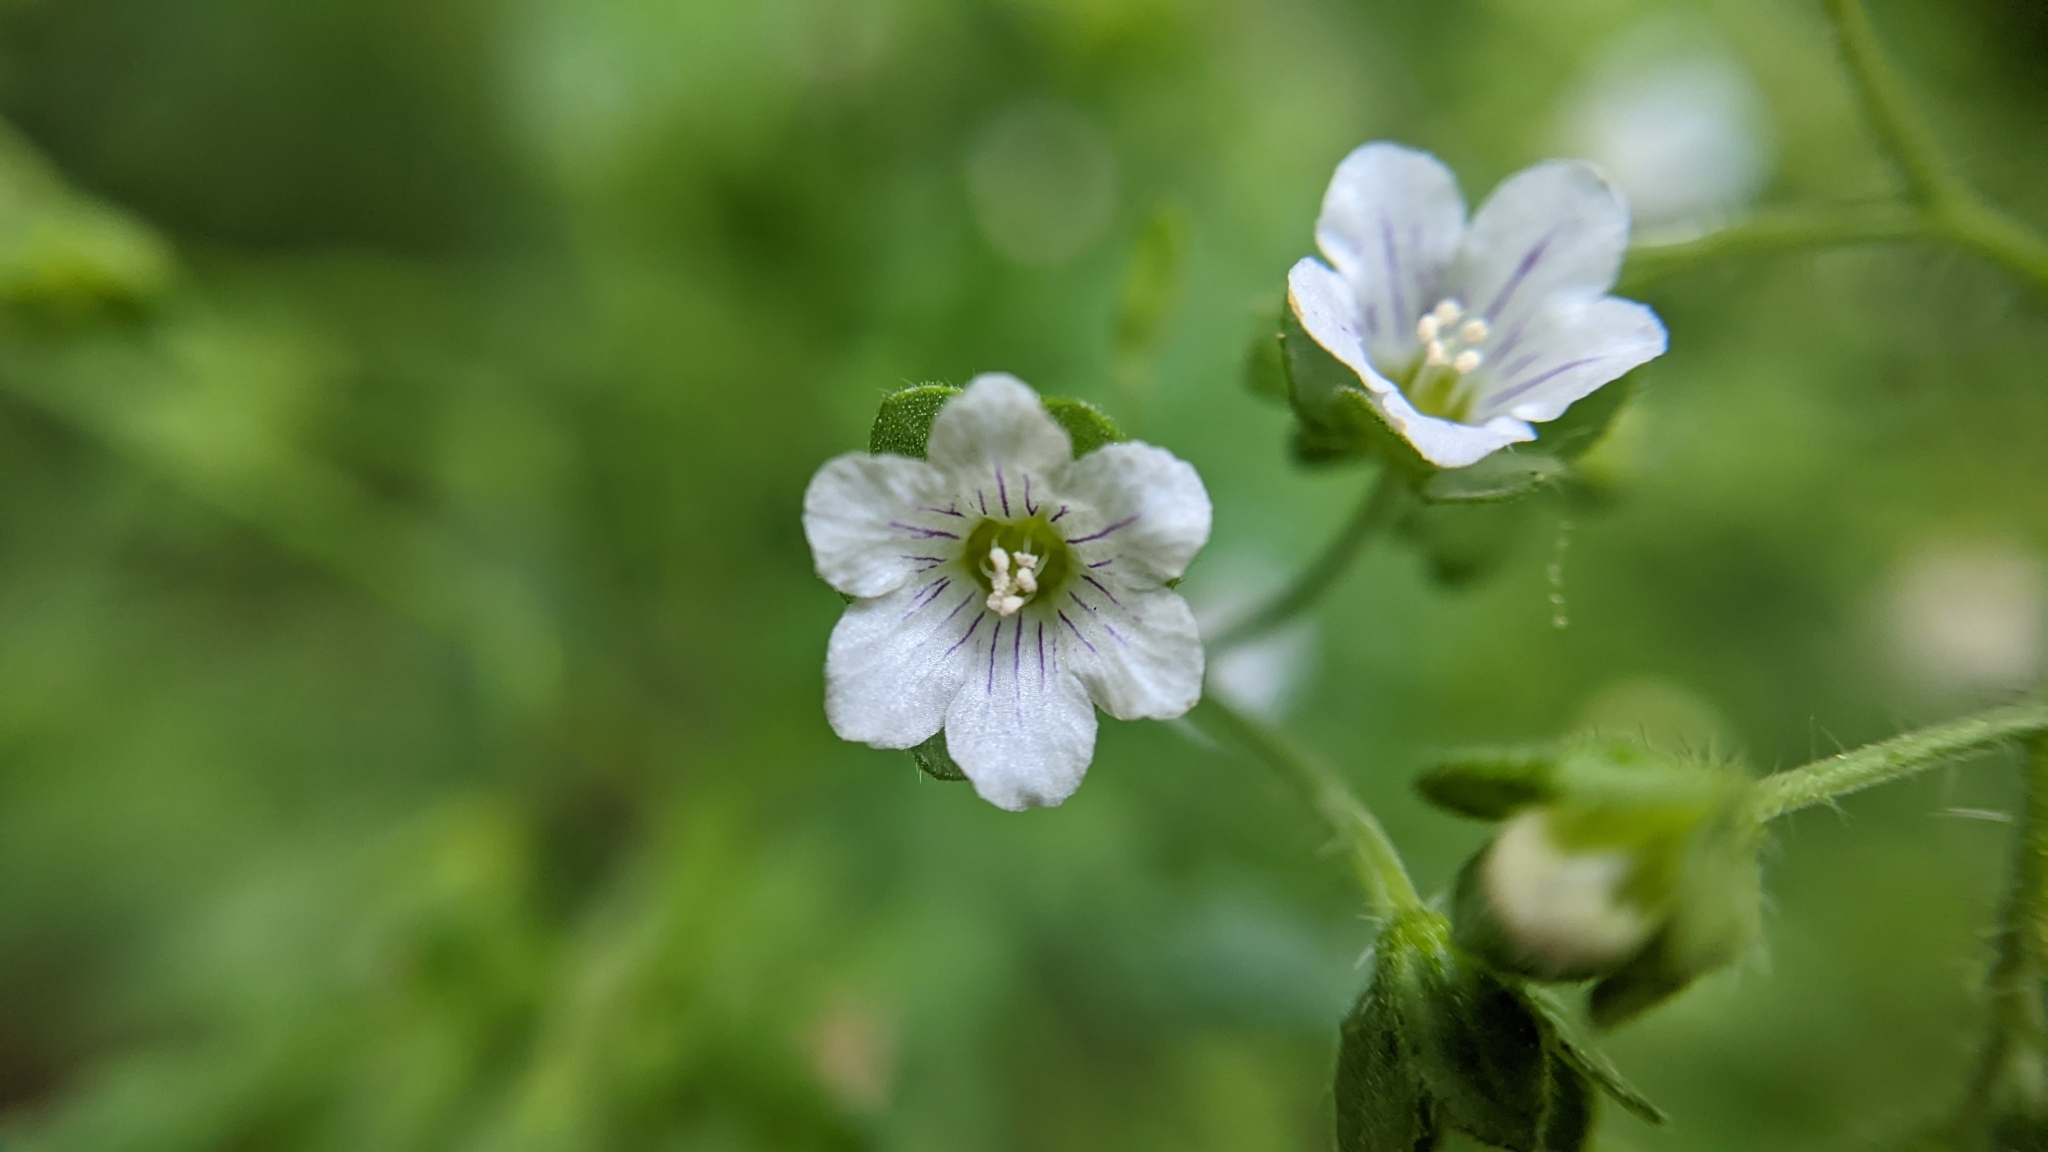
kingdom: Plantae
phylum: Tracheophyta
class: Magnoliopsida
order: Boraginales
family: Hydrophyllaceae
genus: Eucrypta
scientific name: Eucrypta chrysanthemifolia
